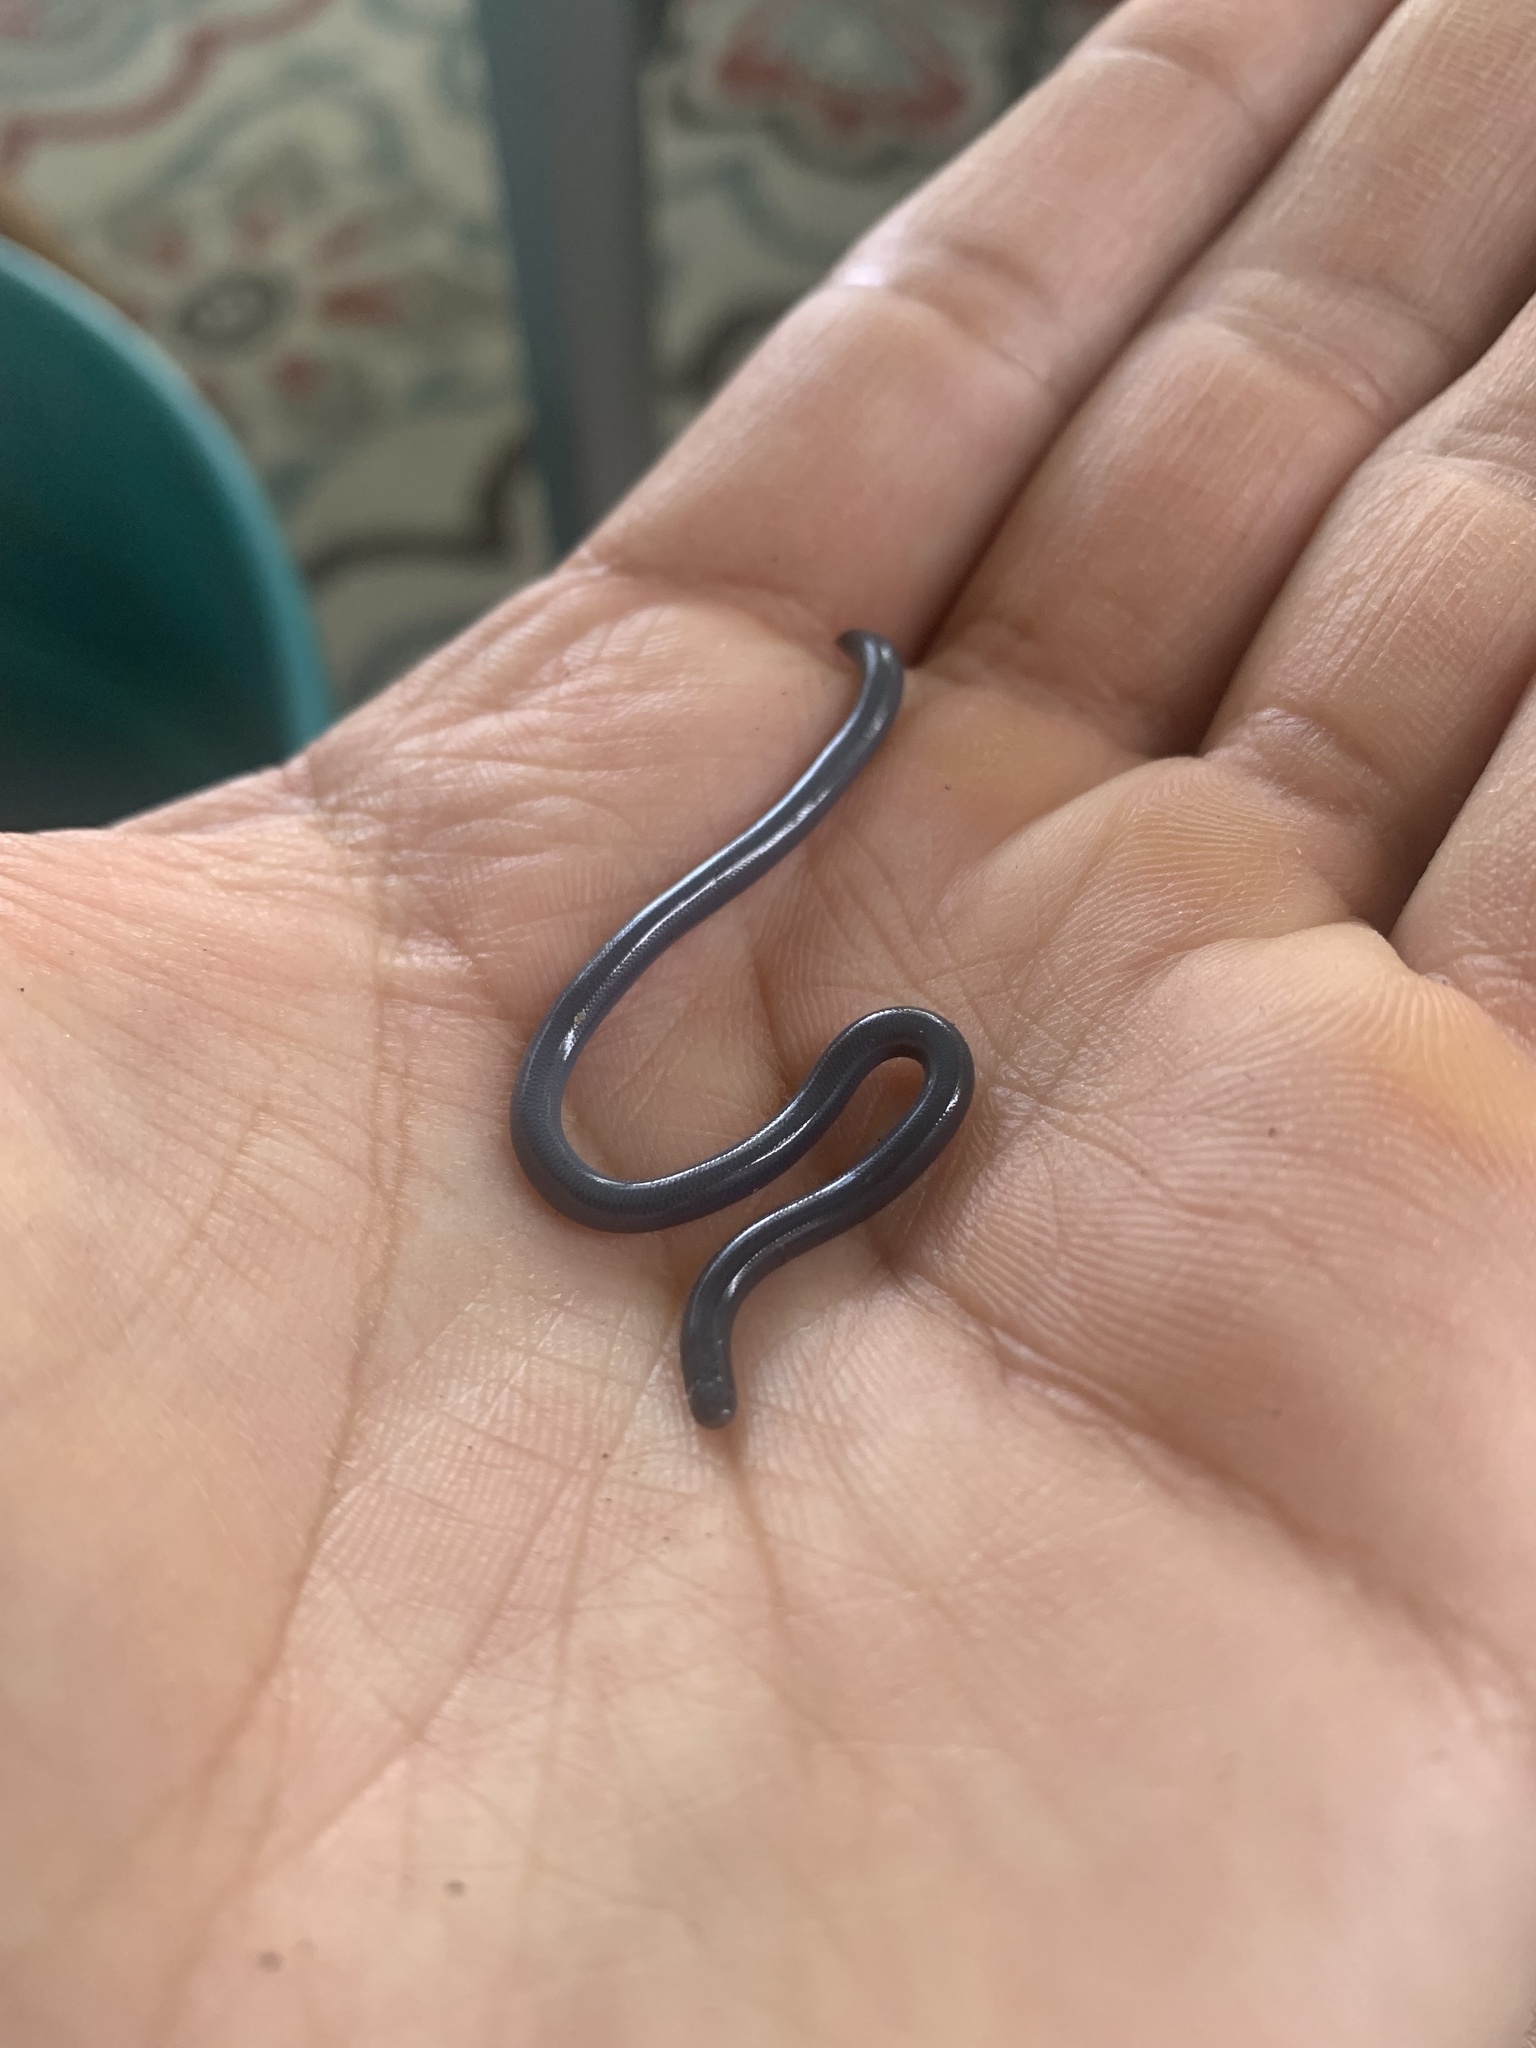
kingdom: Animalia
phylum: Chordata
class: Squamata
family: Typhlopidae
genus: Indotyphlops
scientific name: Indotyphlops braminus
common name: Brahminy blindsnake
